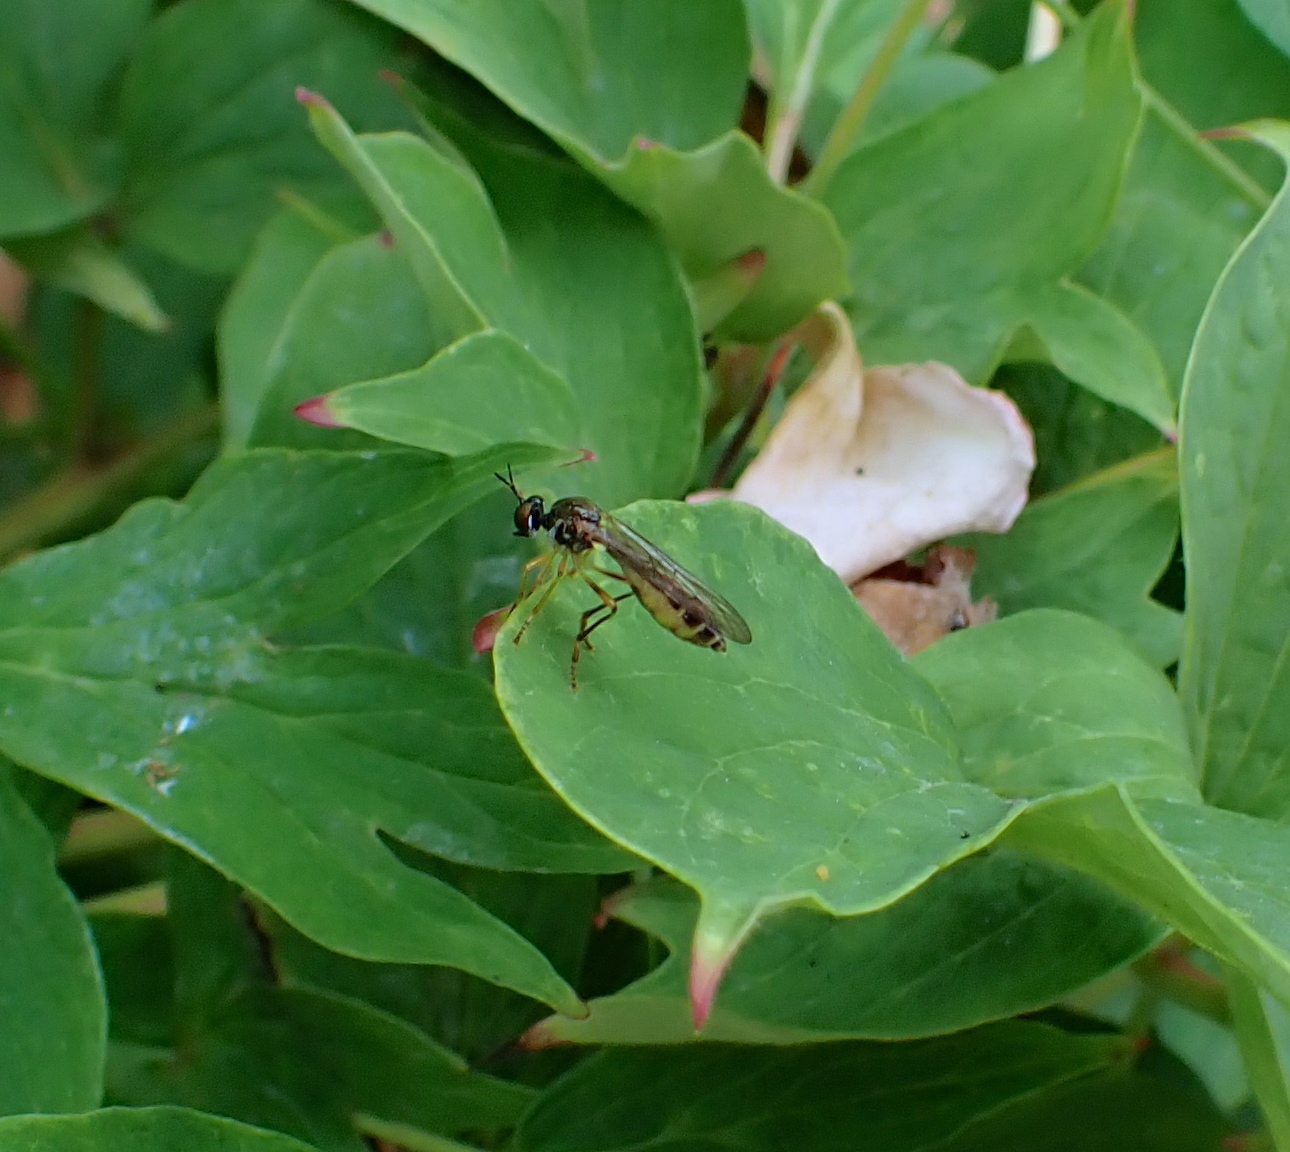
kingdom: Animalia
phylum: Arthropoda
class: Insecta
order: Diptera
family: Asilidae
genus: Dioctria
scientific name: Dioctria linearis
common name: Small yellow-legged robberfly
